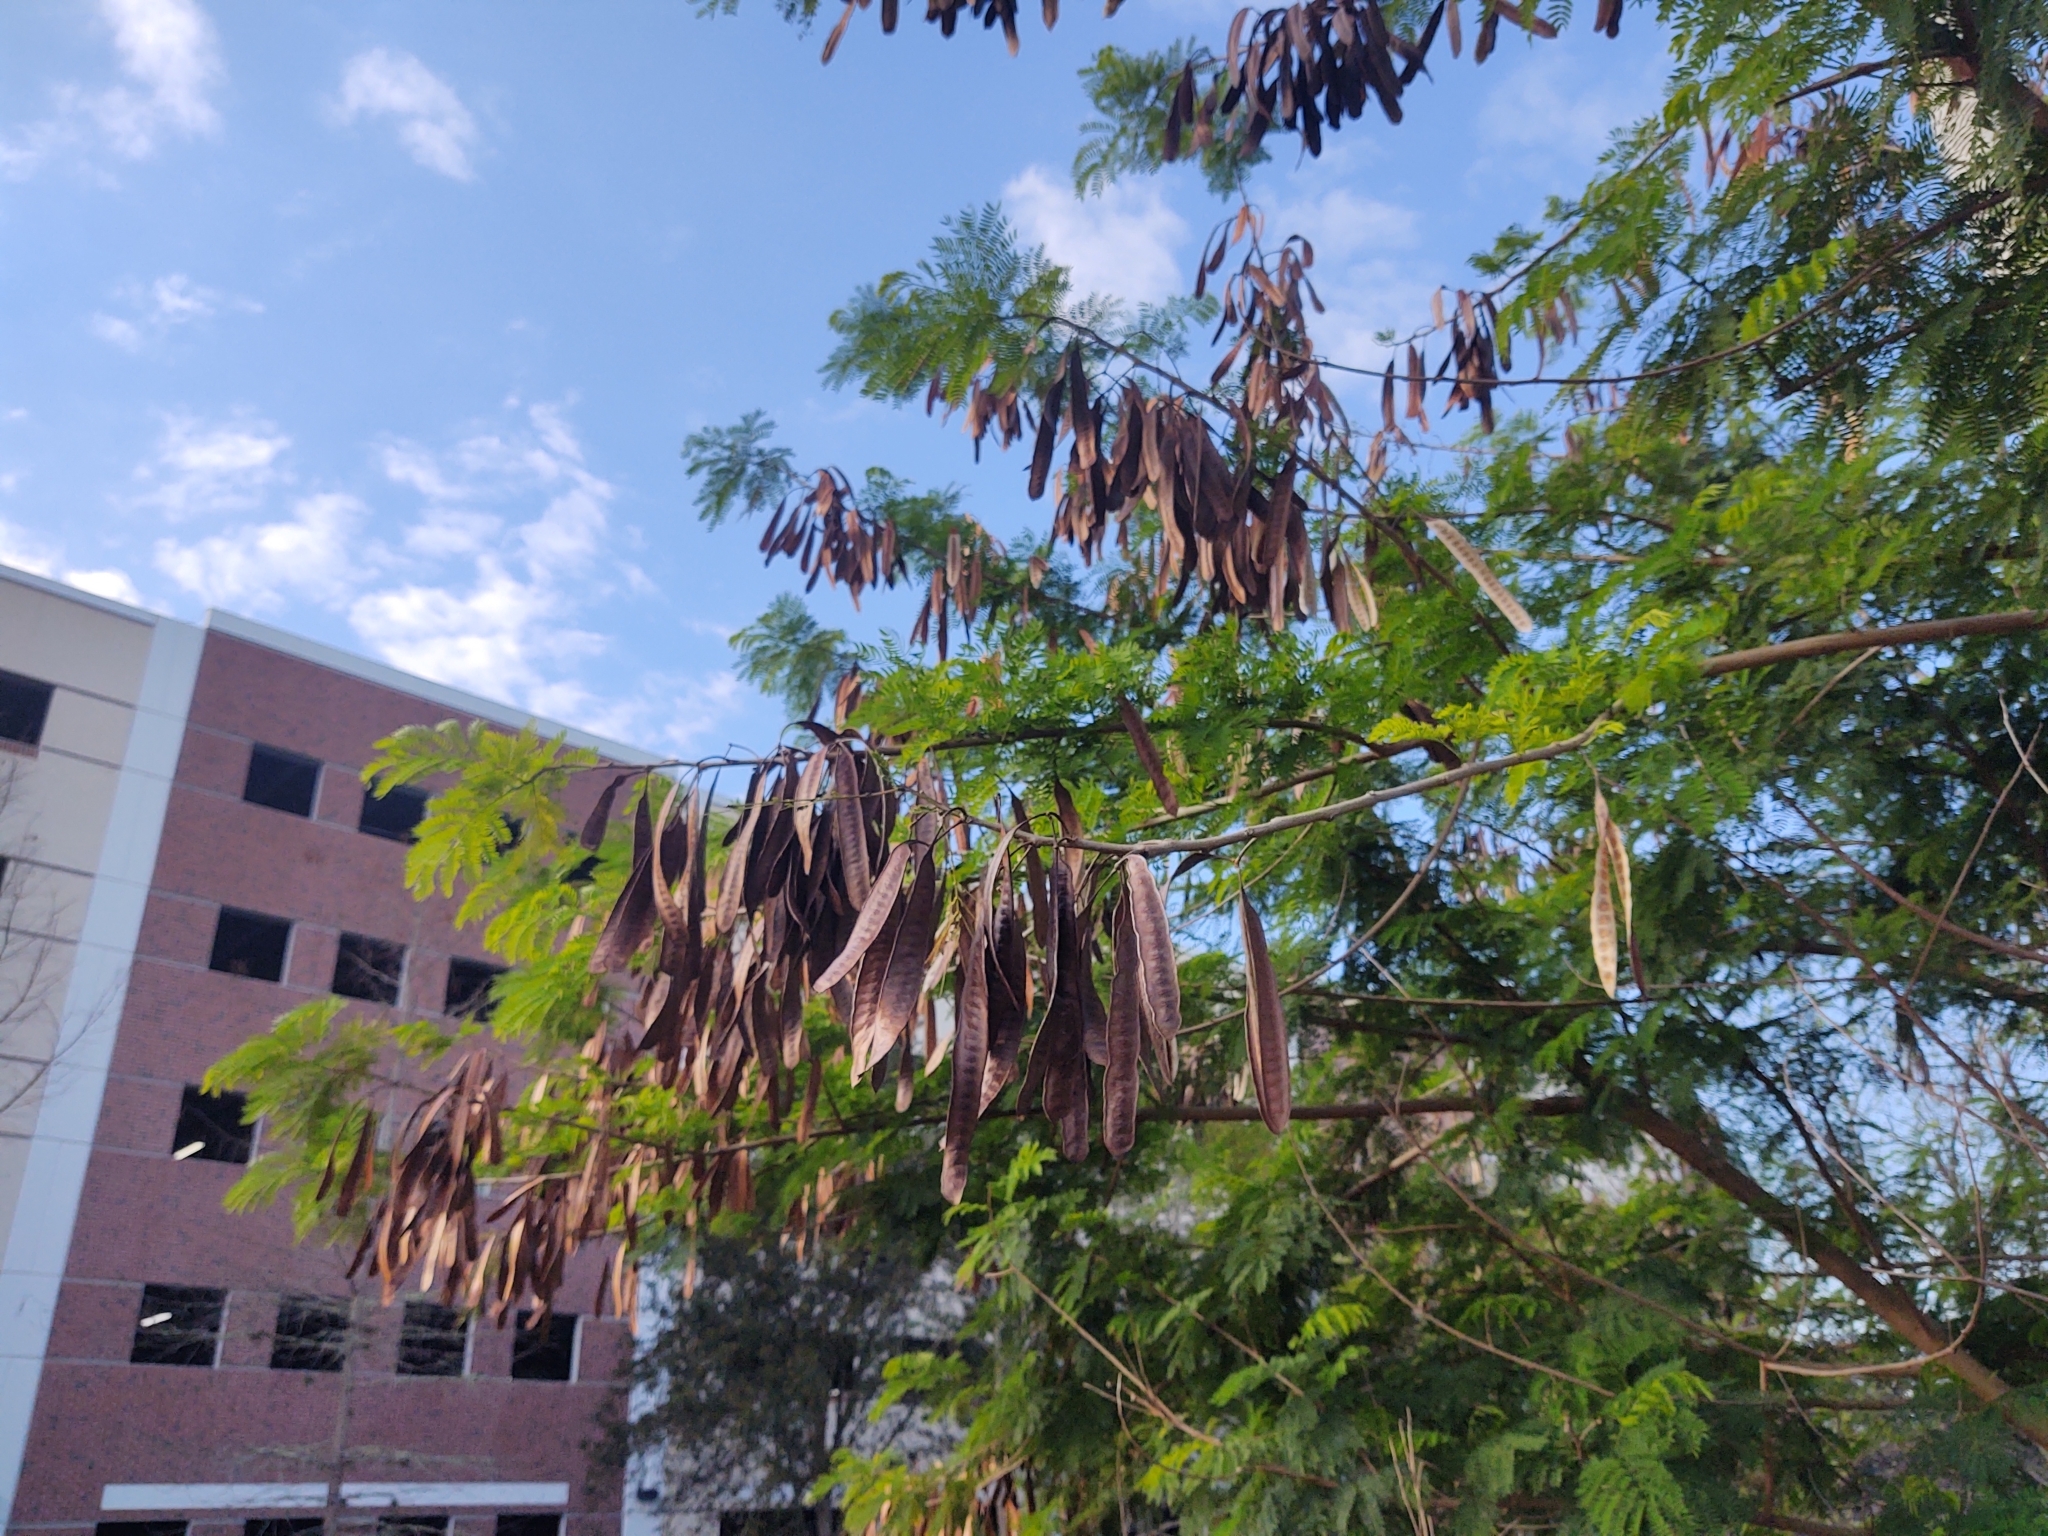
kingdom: Plantae
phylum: Tracheophyta
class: Magnoliopsida
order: Fabales
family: Fabaceae
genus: Leucaena
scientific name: Leucaena leucocephala
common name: White leadtree
